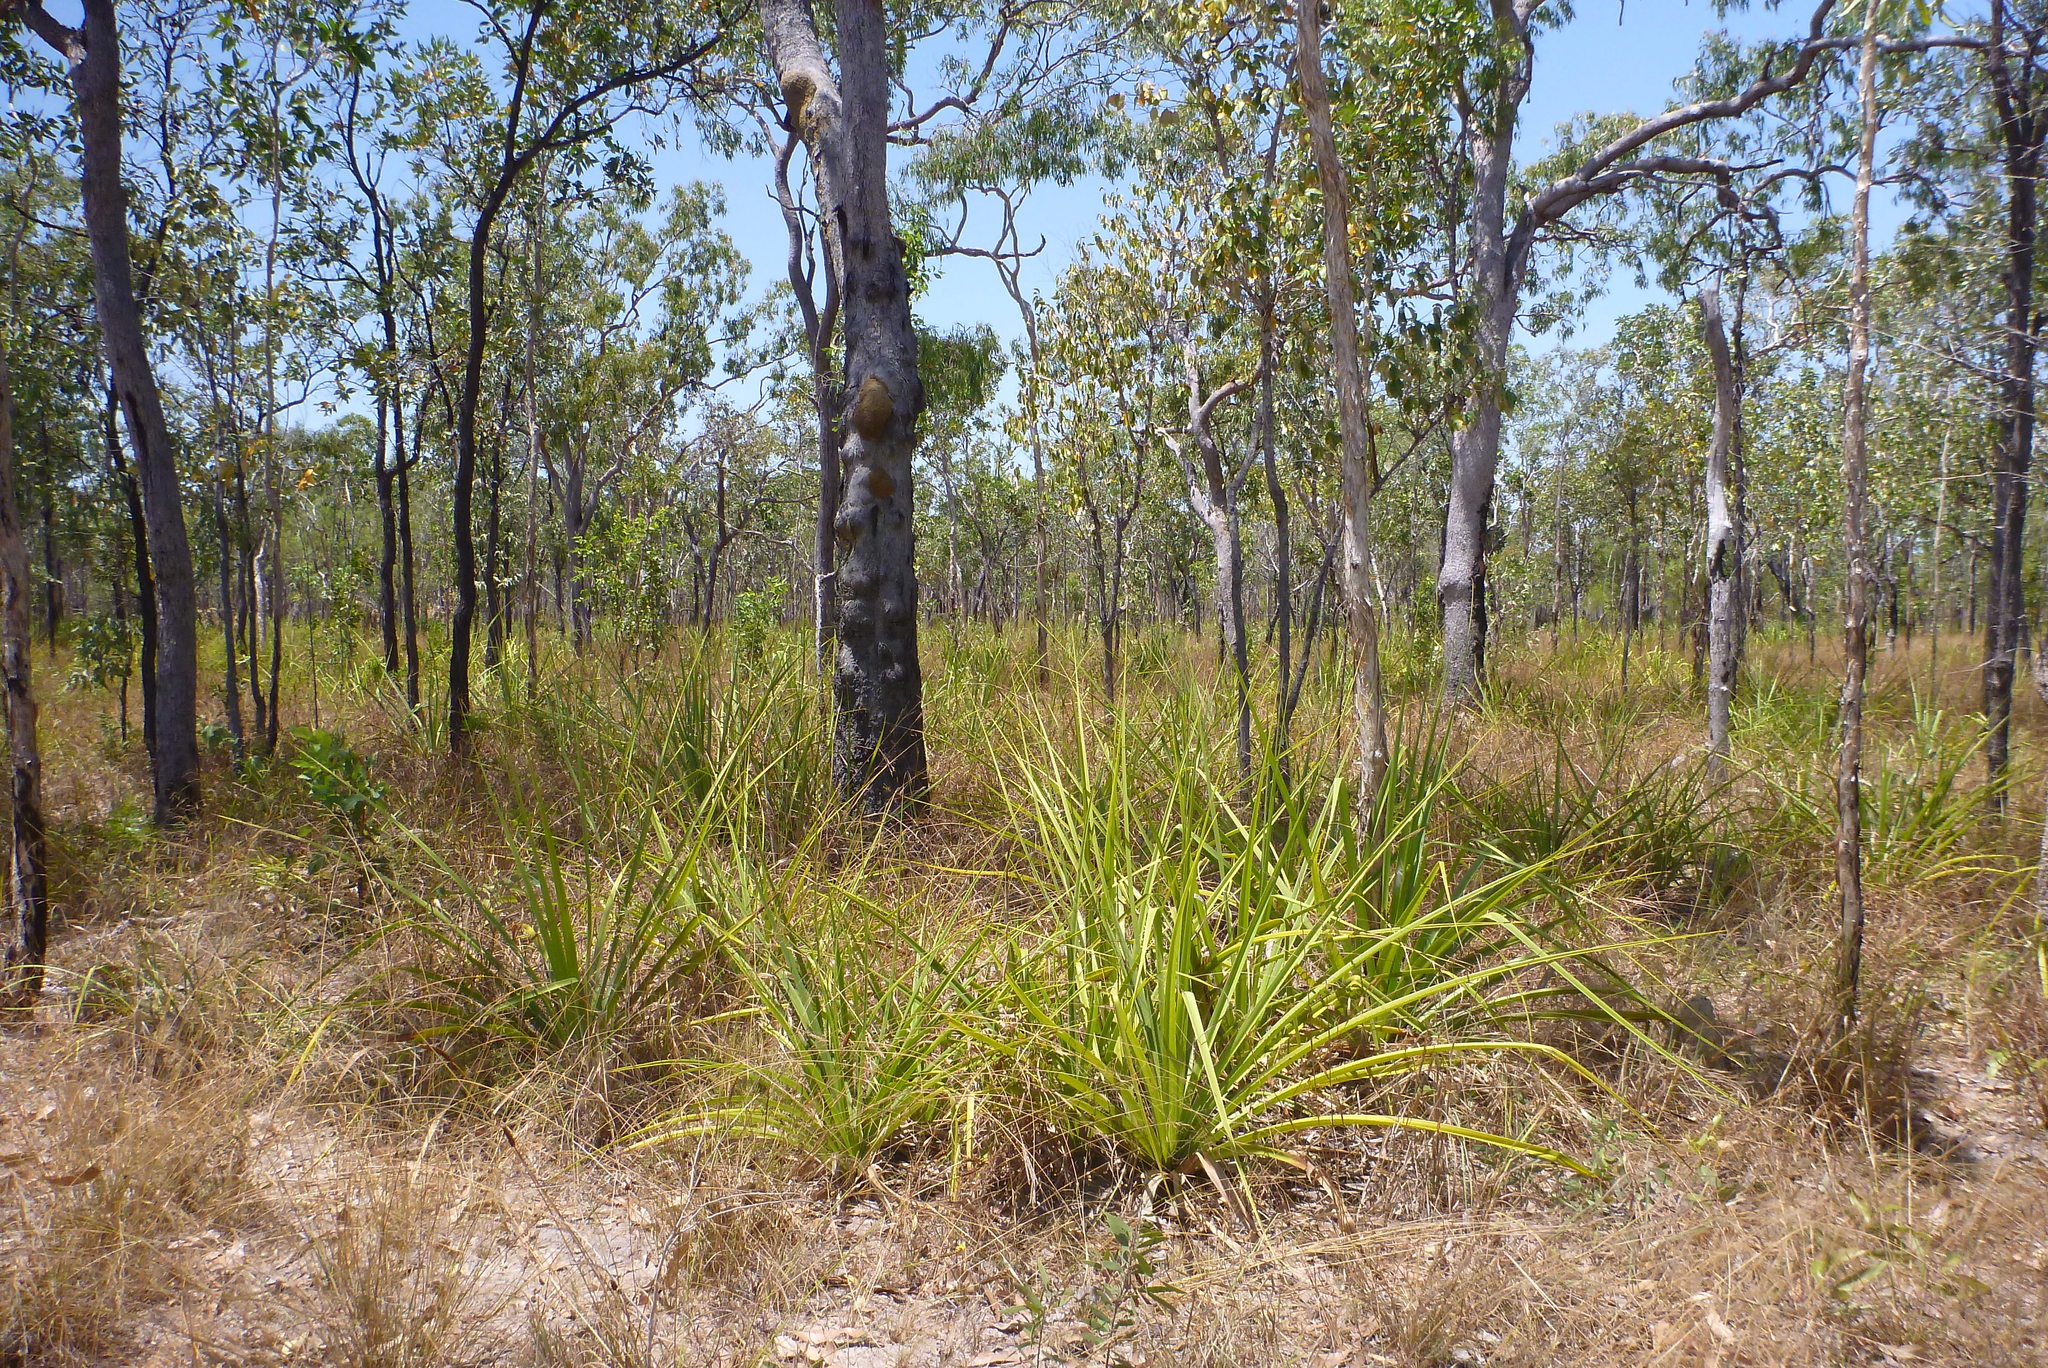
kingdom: Plantae
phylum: Tracheophyta
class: Liliopsida
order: Pandanales
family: Pandanaceae
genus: Pandanus
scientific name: Pandanus spiralis
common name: Screw-pine
